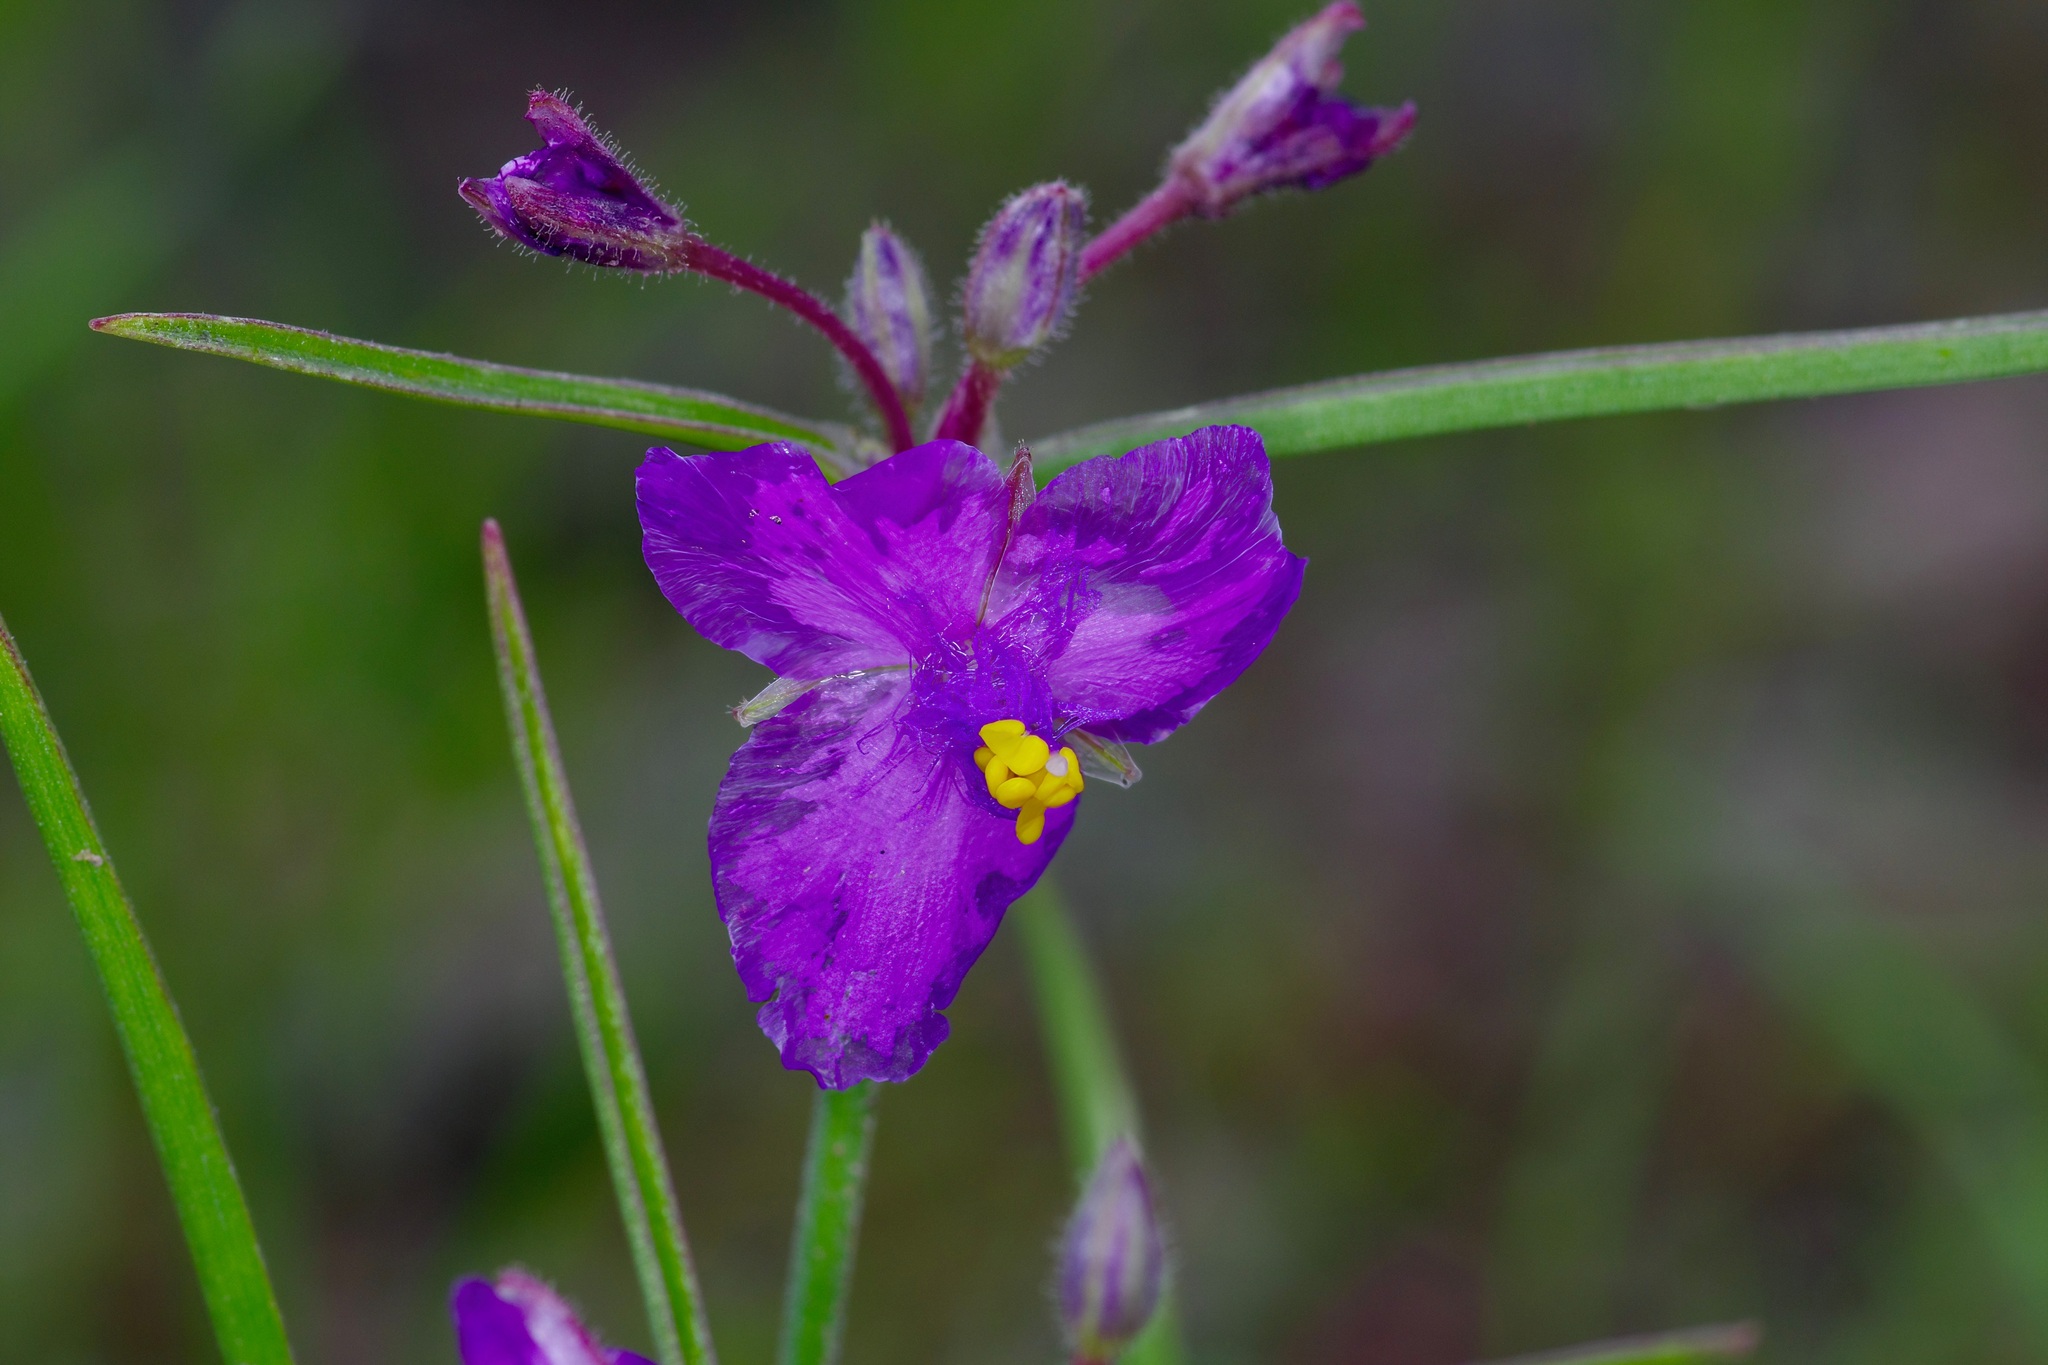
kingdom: Plantae
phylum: Tracheophyta
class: Liliopsida
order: Commelinales
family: Commelinaceae
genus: Tradescantia
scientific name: Tradescantia pinetorum
